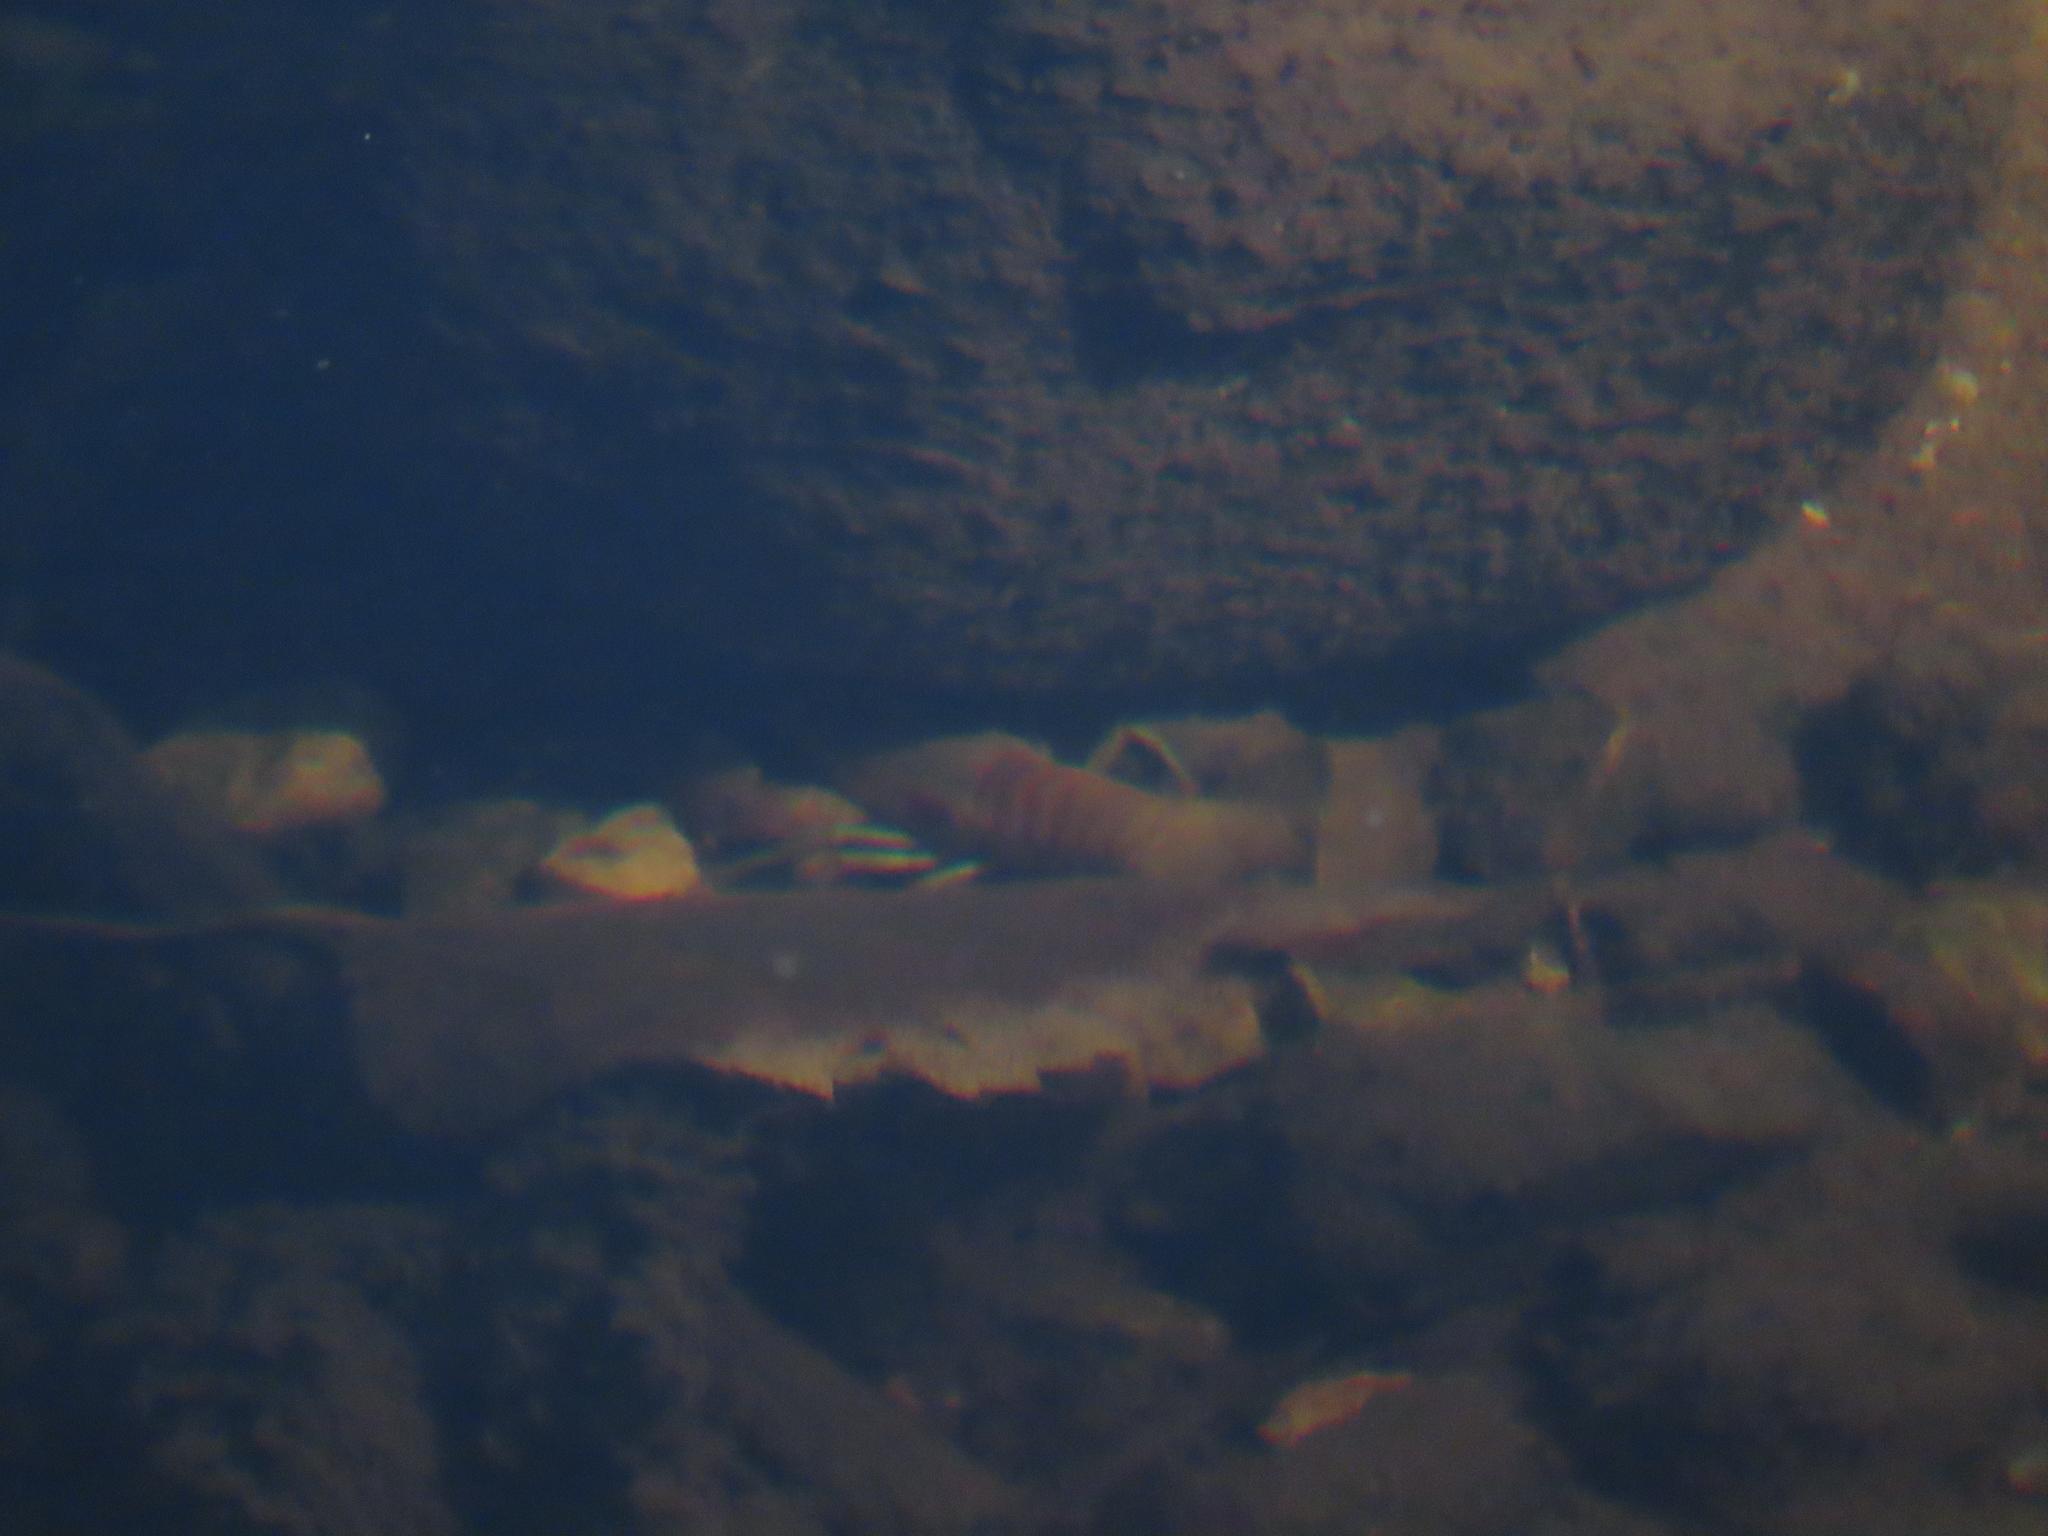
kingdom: Animalia
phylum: Arthropoda
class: Malacostraca
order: Decapoda
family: Cambaridae
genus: Faxonius
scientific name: Faxonius rusticus
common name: Rusty crayfish
